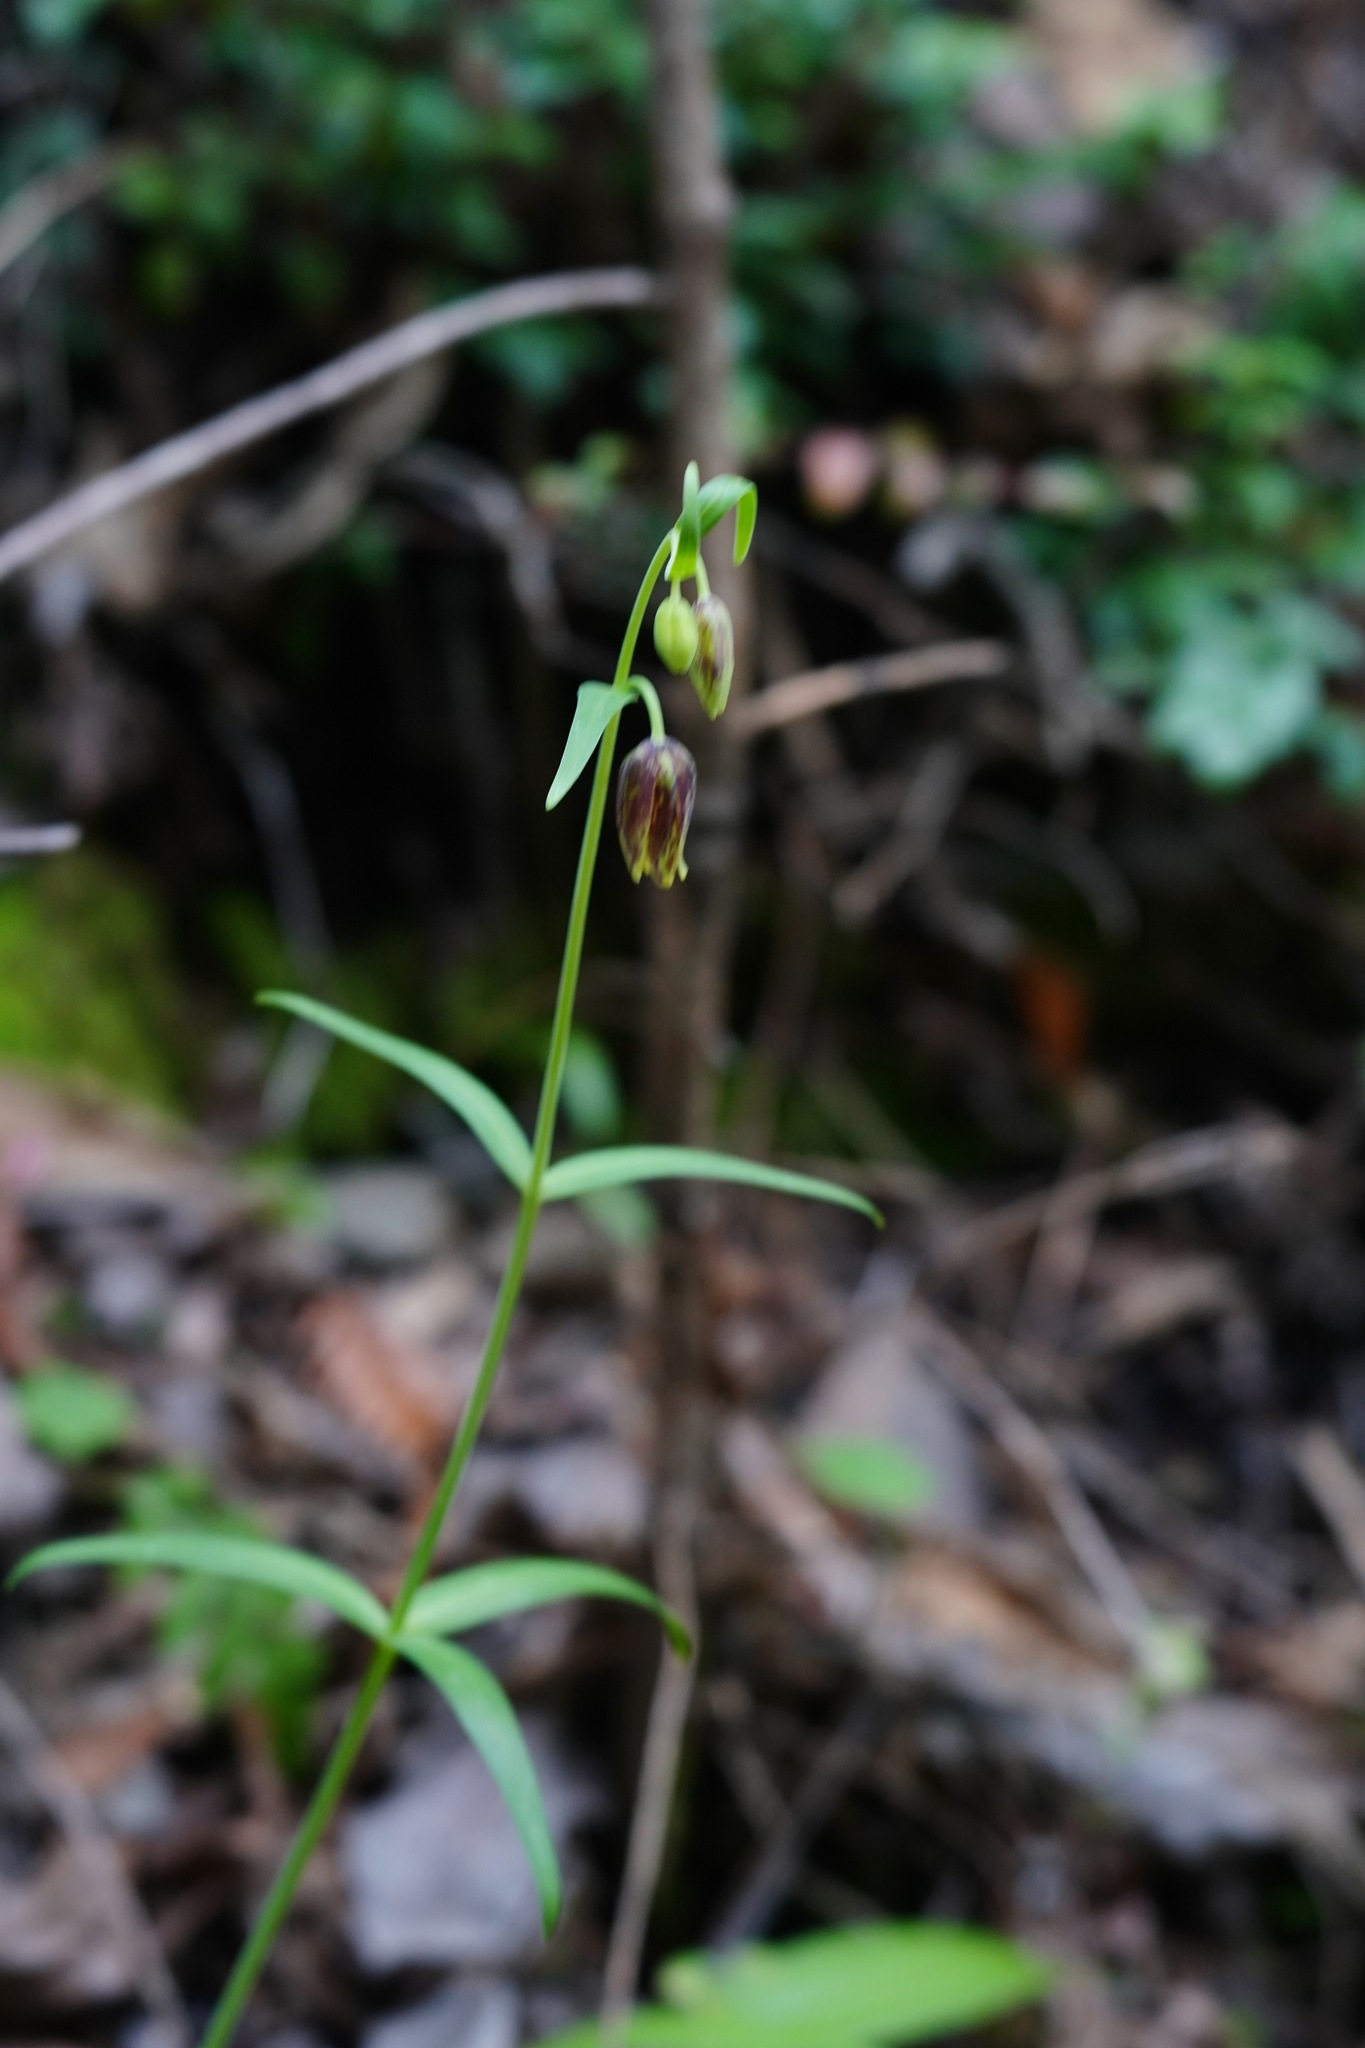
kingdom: Plantae
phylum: Tracheophyta
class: Liliopsida
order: Liliales
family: Liliaceae
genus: Fritillaria
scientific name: Fritillaria affinis
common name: Ojai fritillary
